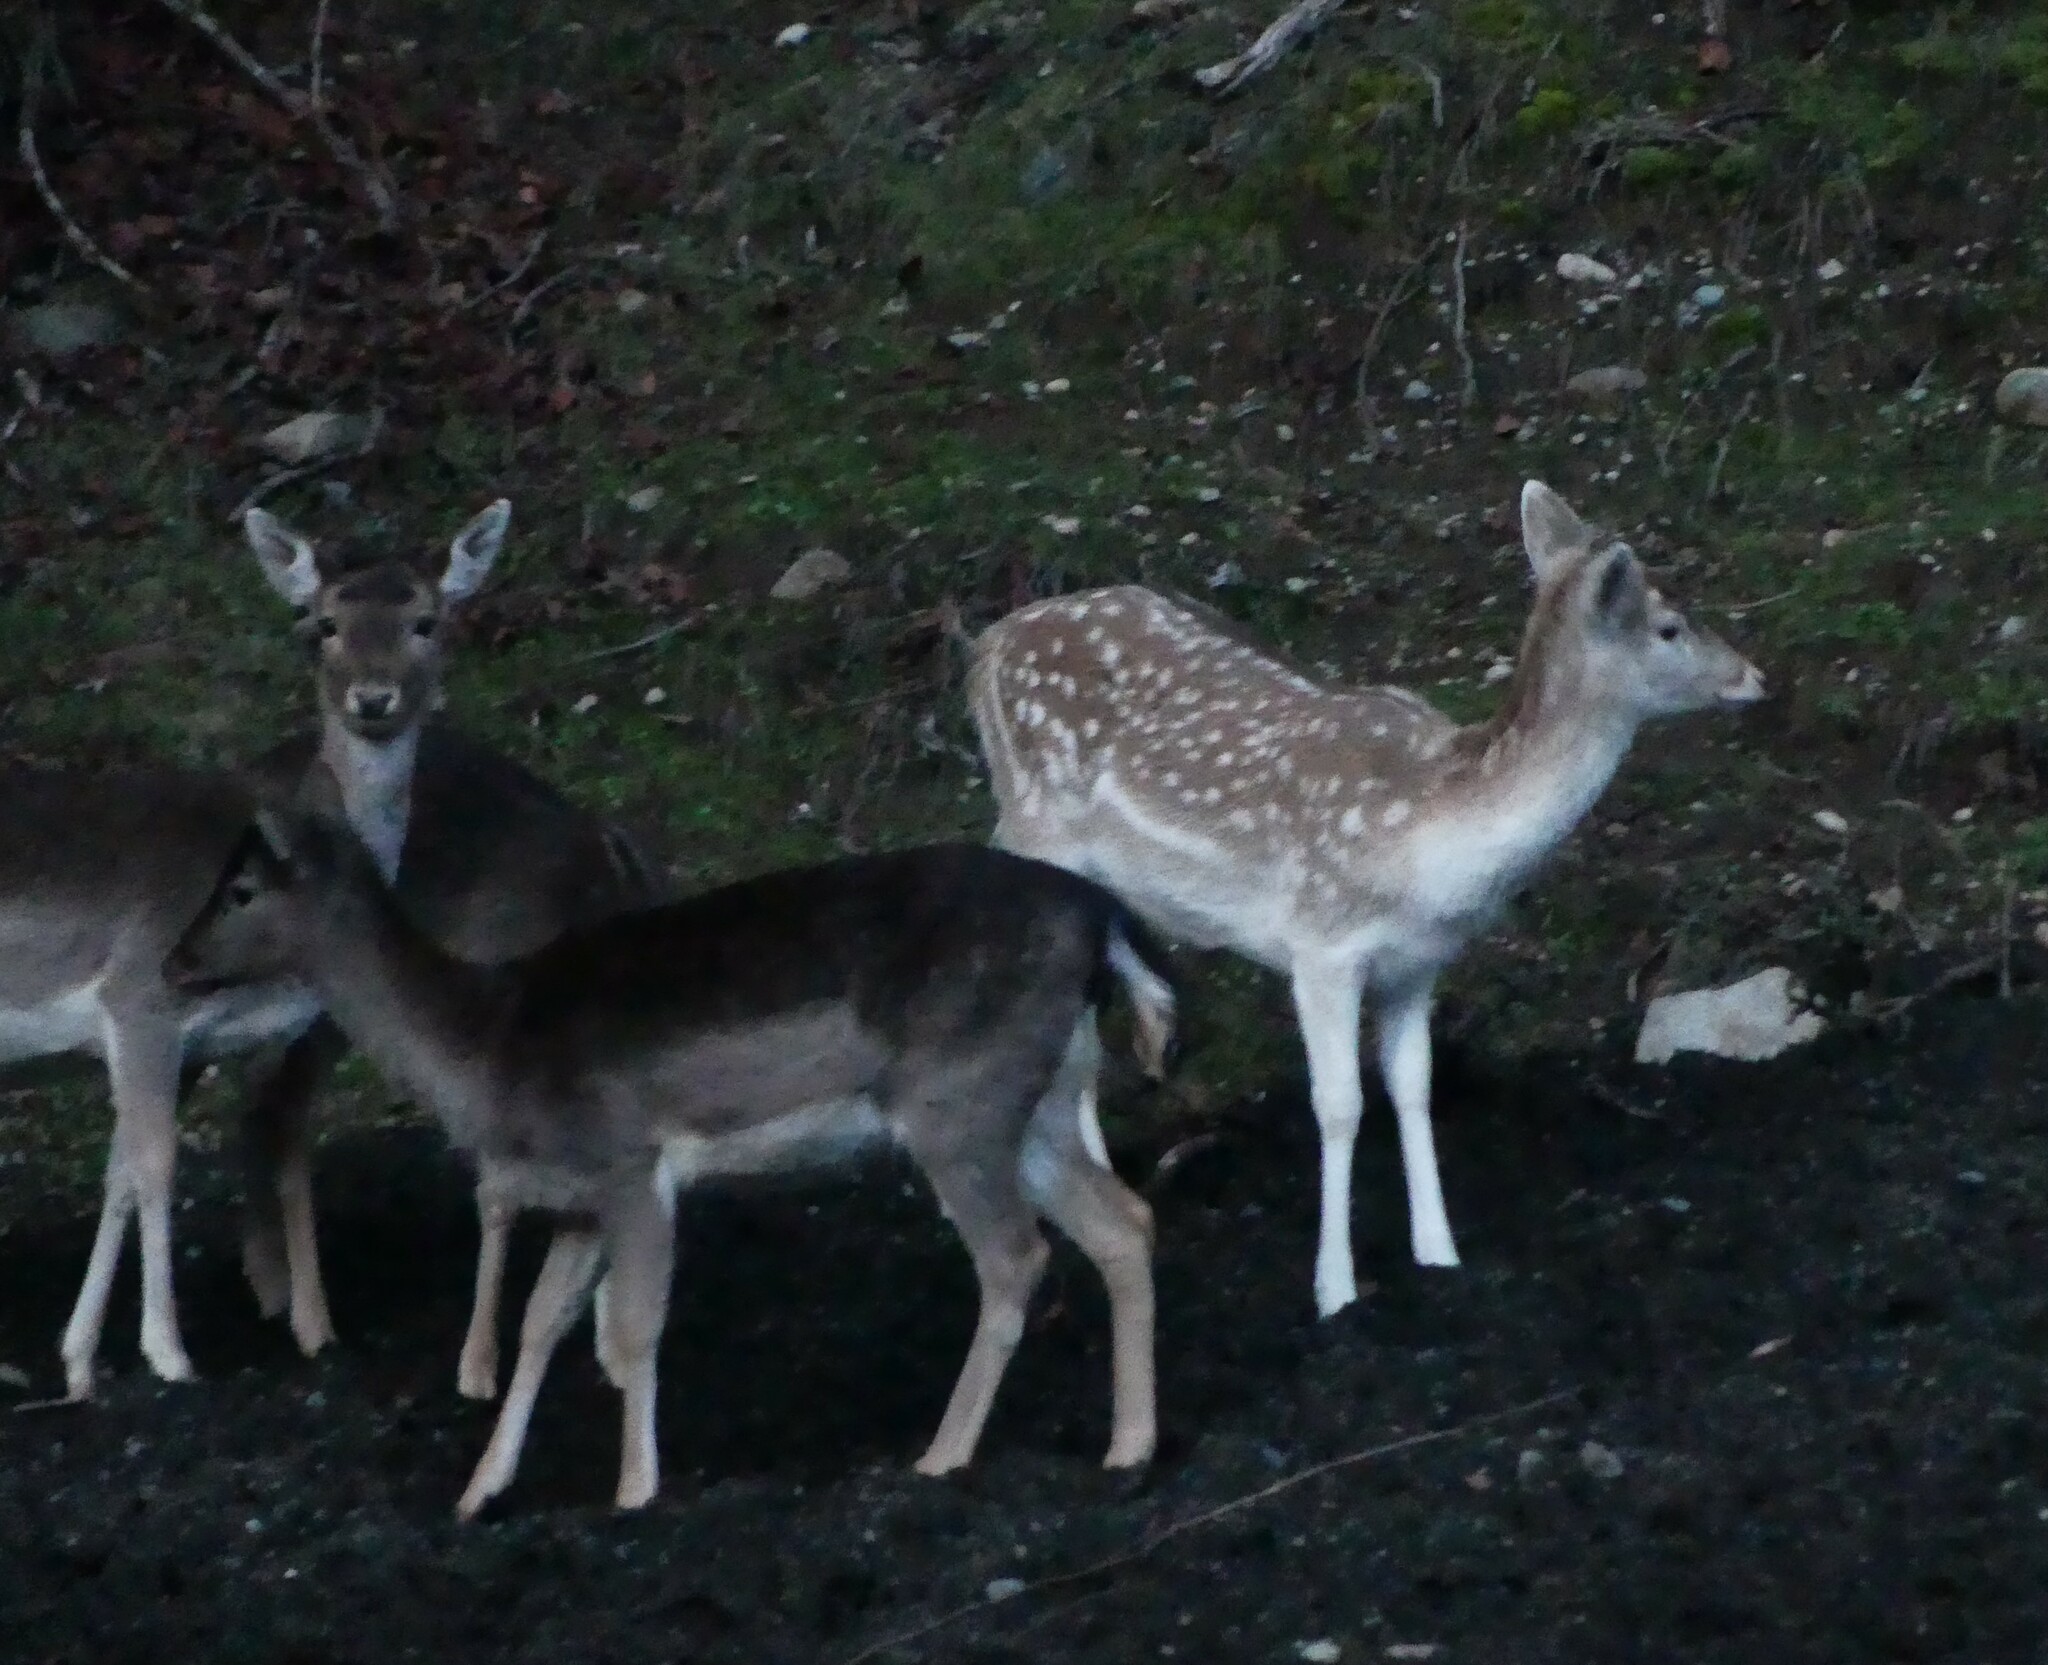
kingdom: Animalia
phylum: Chordata
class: Mammalia
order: Artiodactyla
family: Cervidae
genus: Dama
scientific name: Dama dama
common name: Fallow deer
